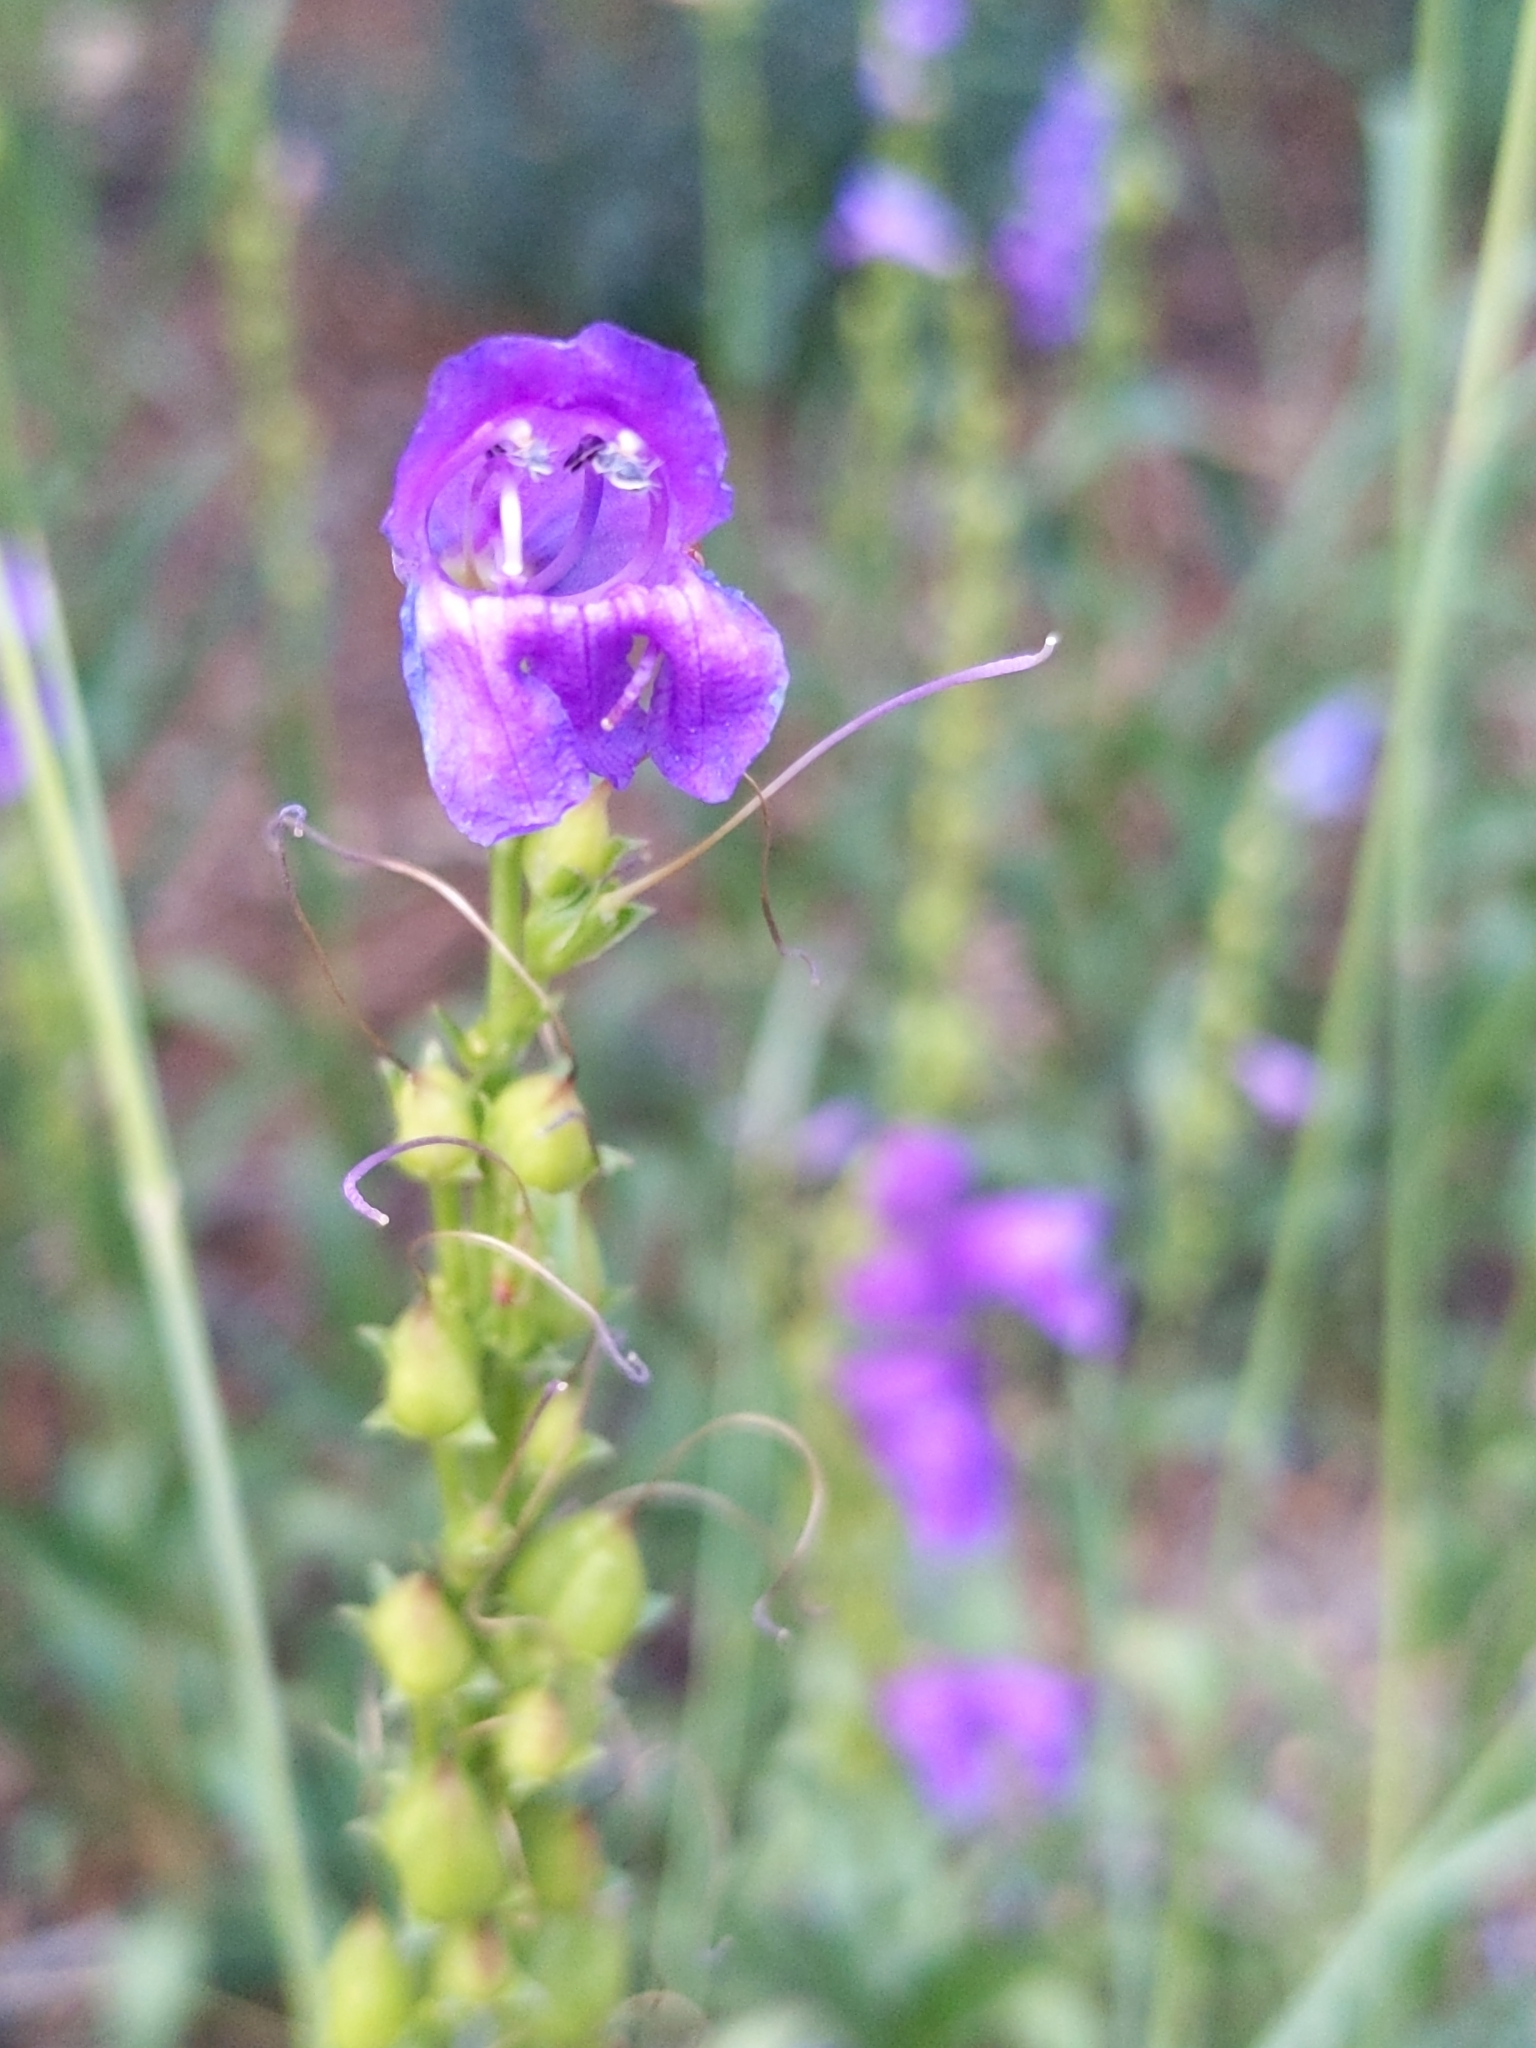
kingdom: Plantae
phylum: Tracheophyta
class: Magnoliopsida
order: Lamiales
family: Plantaginaceae
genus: Penstemon
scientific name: Penstemon strictus
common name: Rocky mountain penstemon
